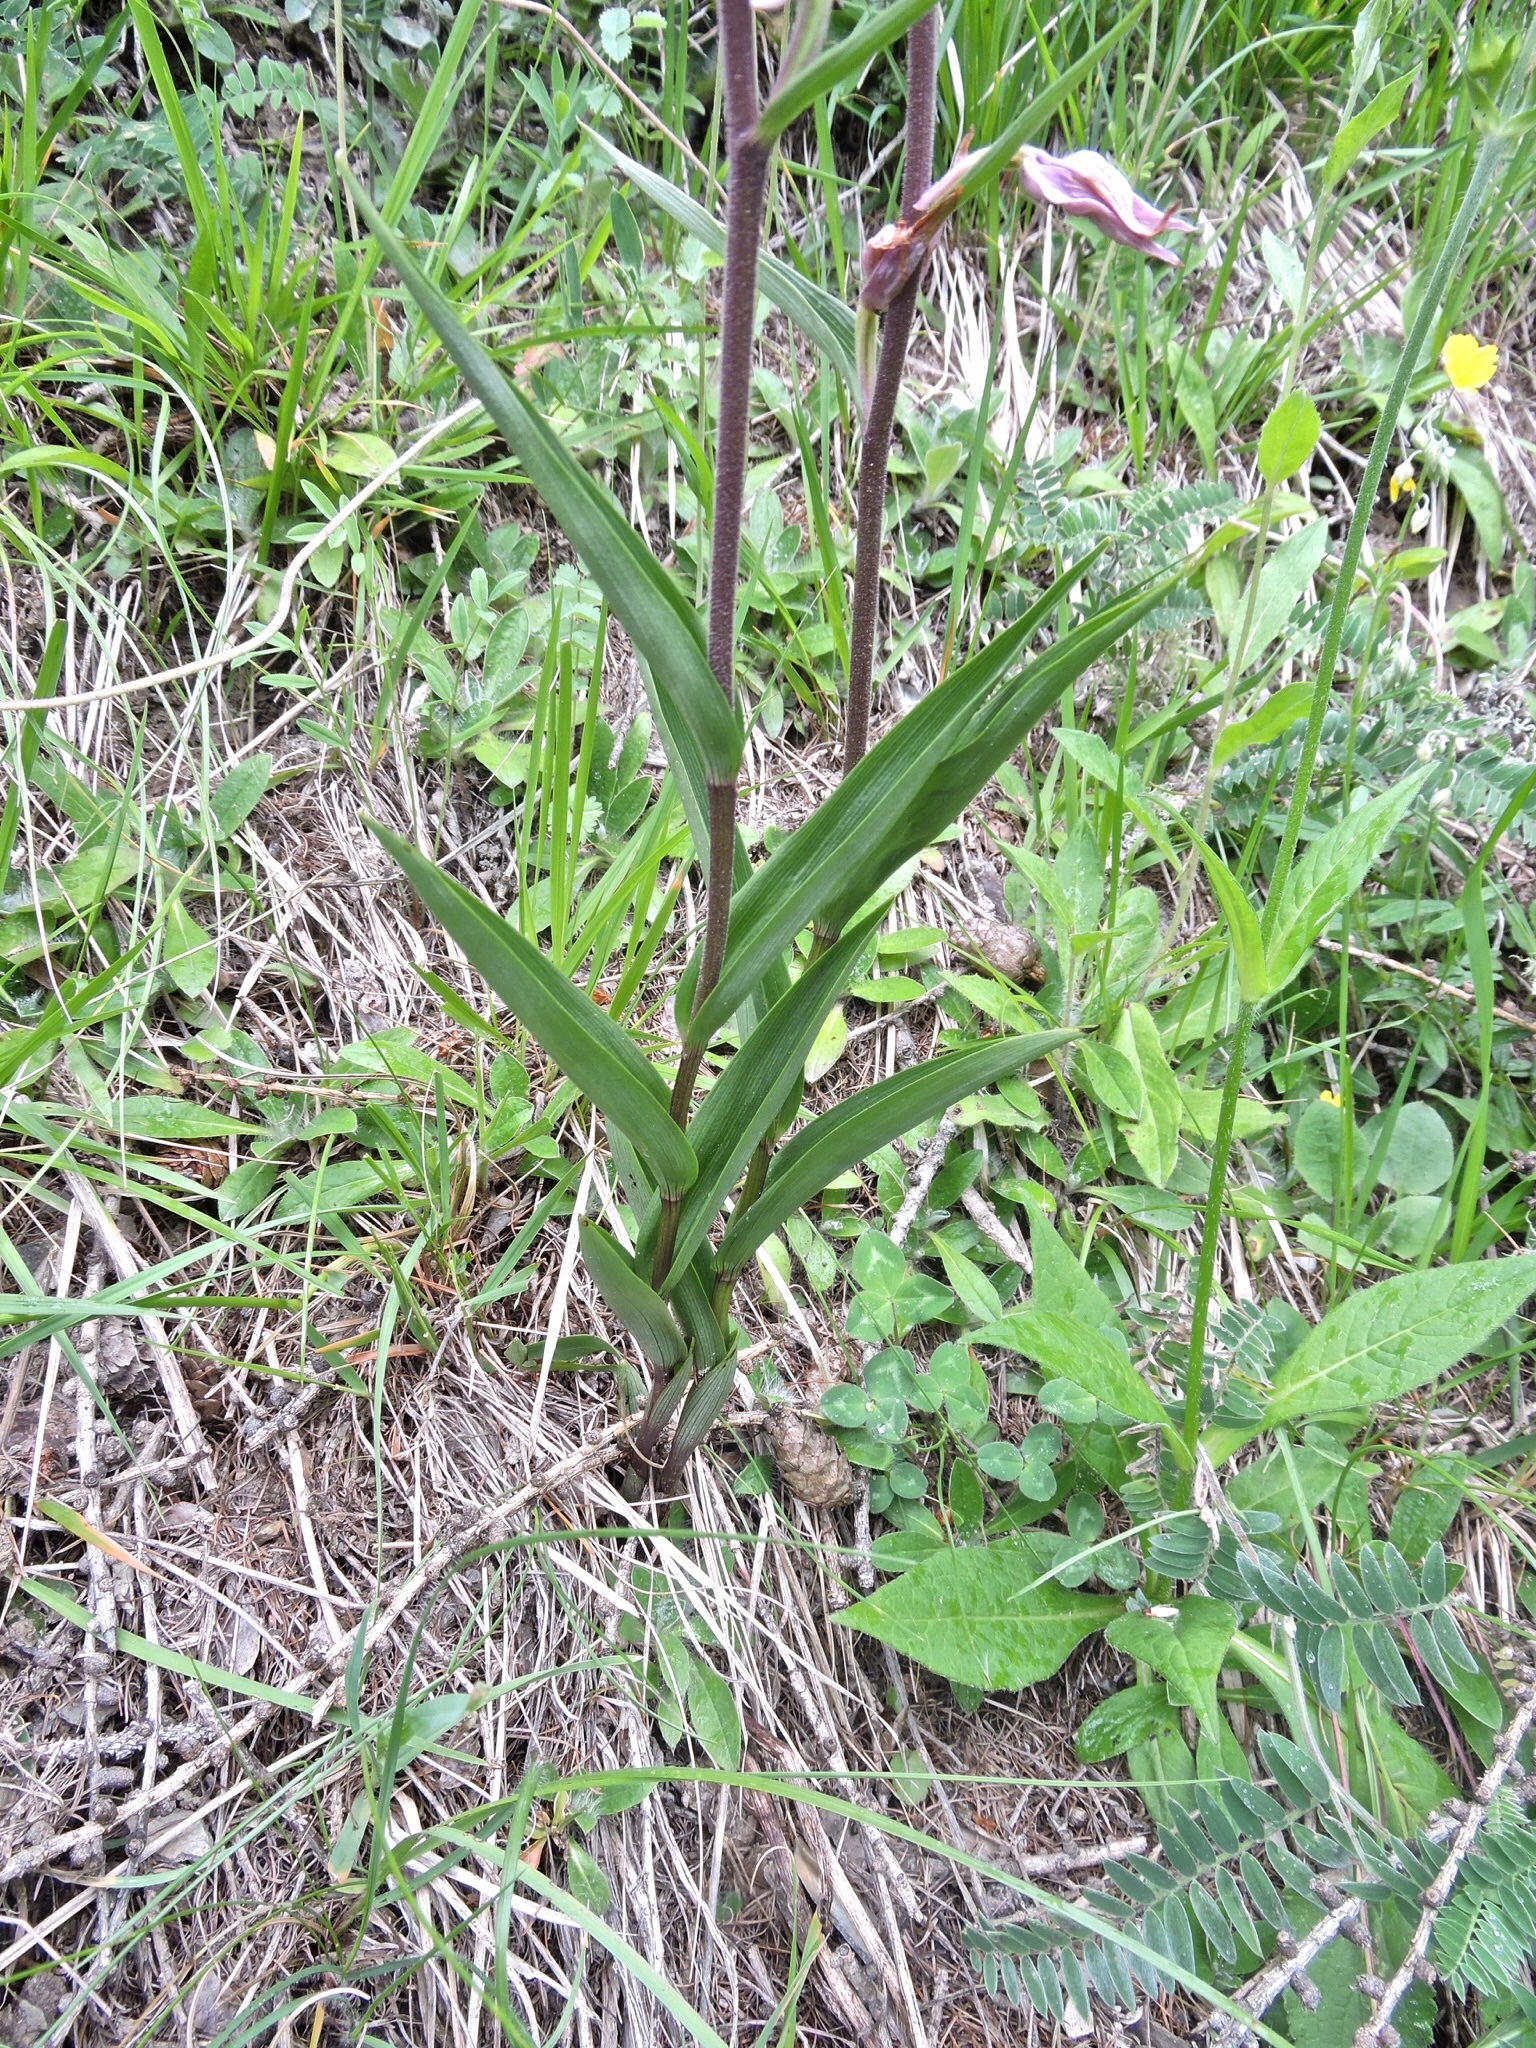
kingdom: Plantae
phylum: Tracheophyta
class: Liliopsida
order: Asparagales
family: Orchidaceae
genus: Cephalanthera
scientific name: Cephalanthera rubra
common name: Red helleborine
